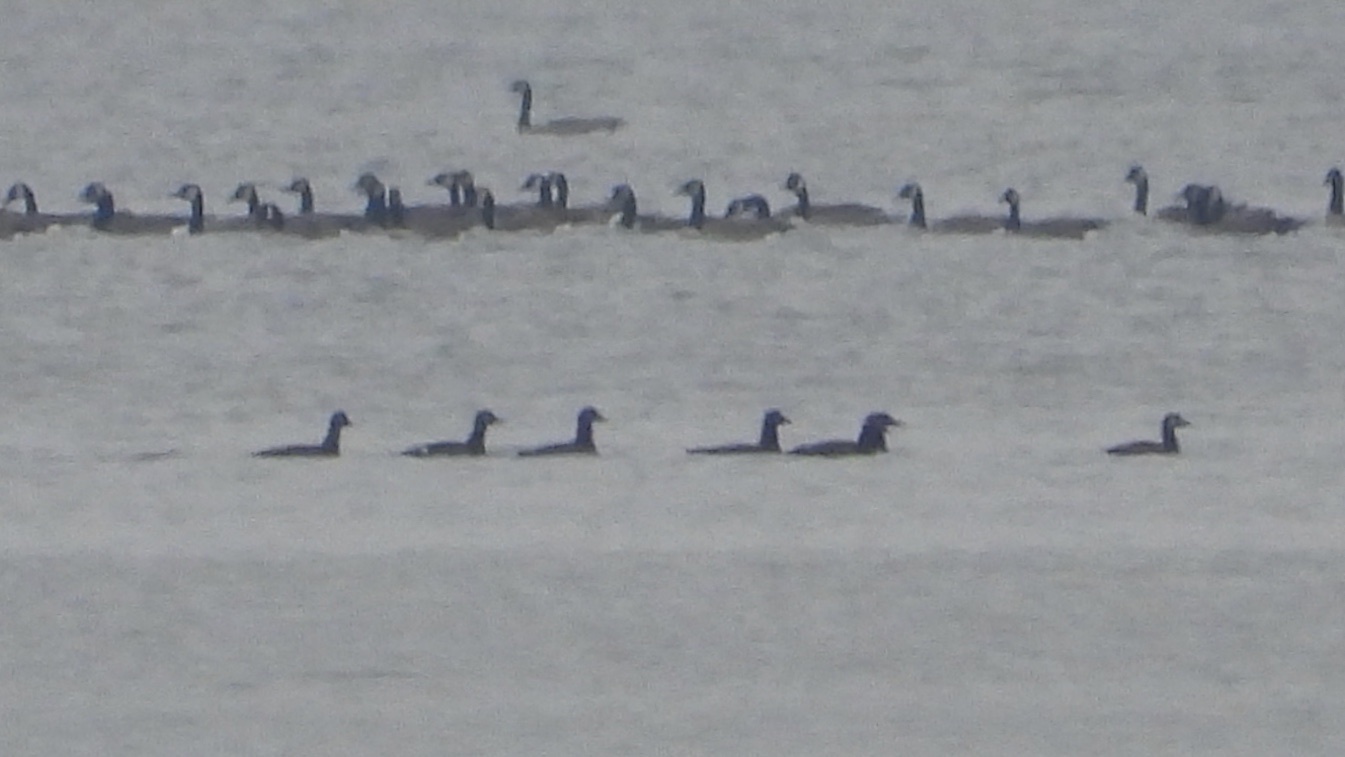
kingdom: Animalia
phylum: Chordata
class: Aves
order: Anseriformes
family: Anatidae
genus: Melanitta
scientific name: Melanitta deglandi
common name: White-winged scoter
